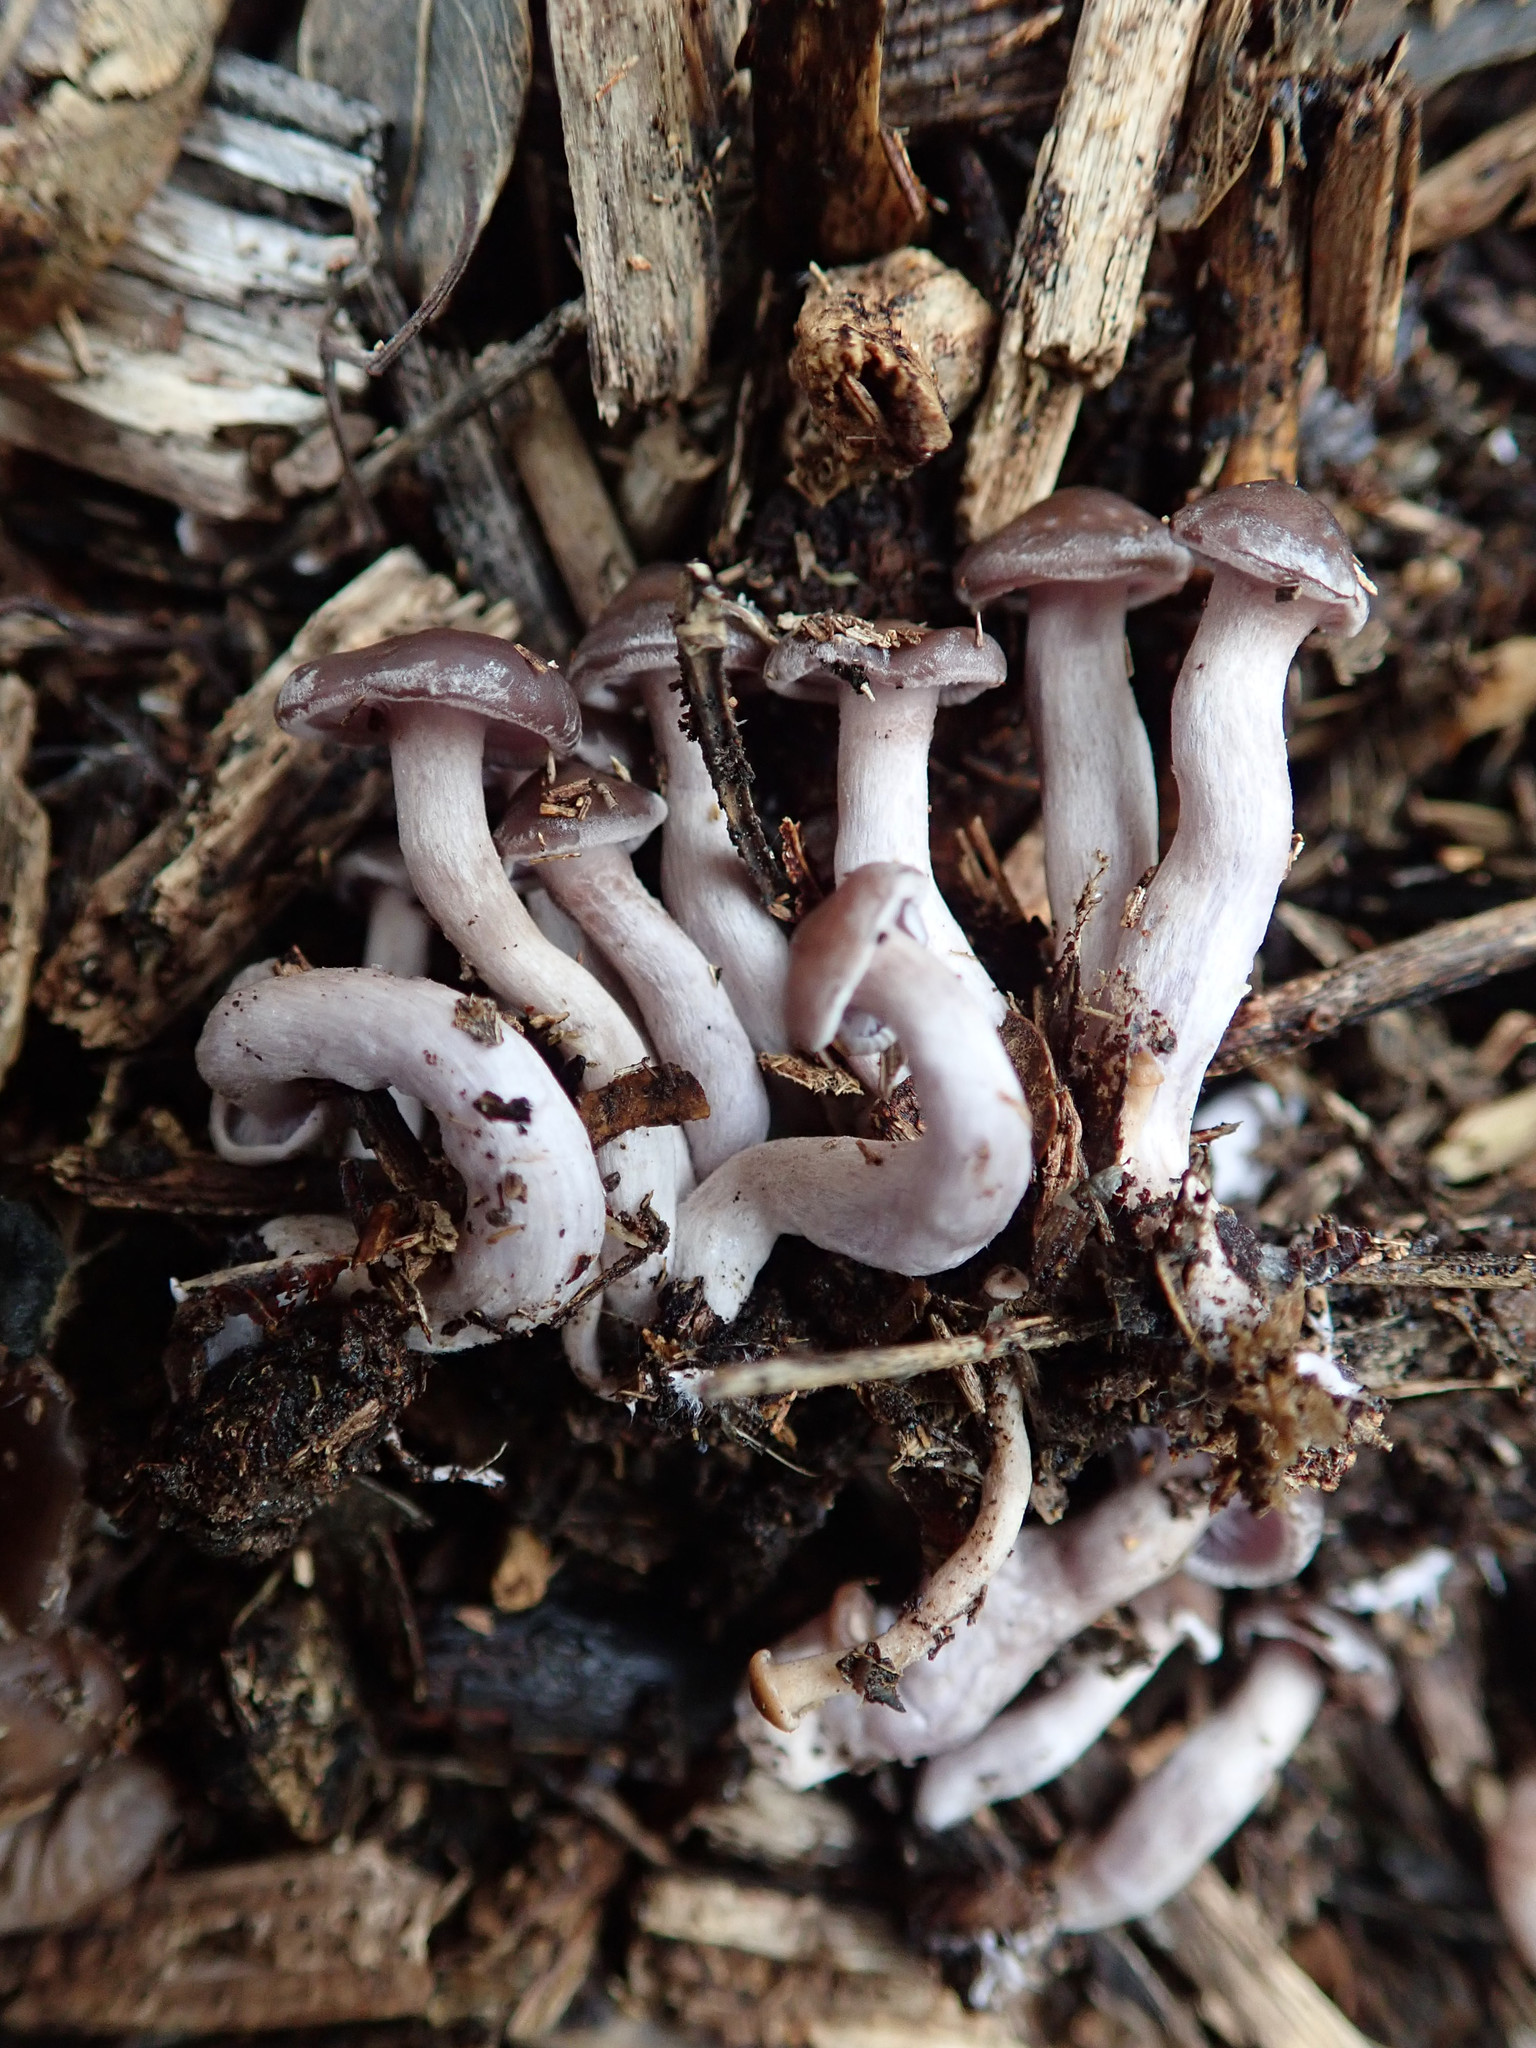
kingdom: Fungi
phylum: Basidiomycota
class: Agaricomycetes
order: Agaricales
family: Tricholomataceae
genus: Lepista
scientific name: Lepista tarda
